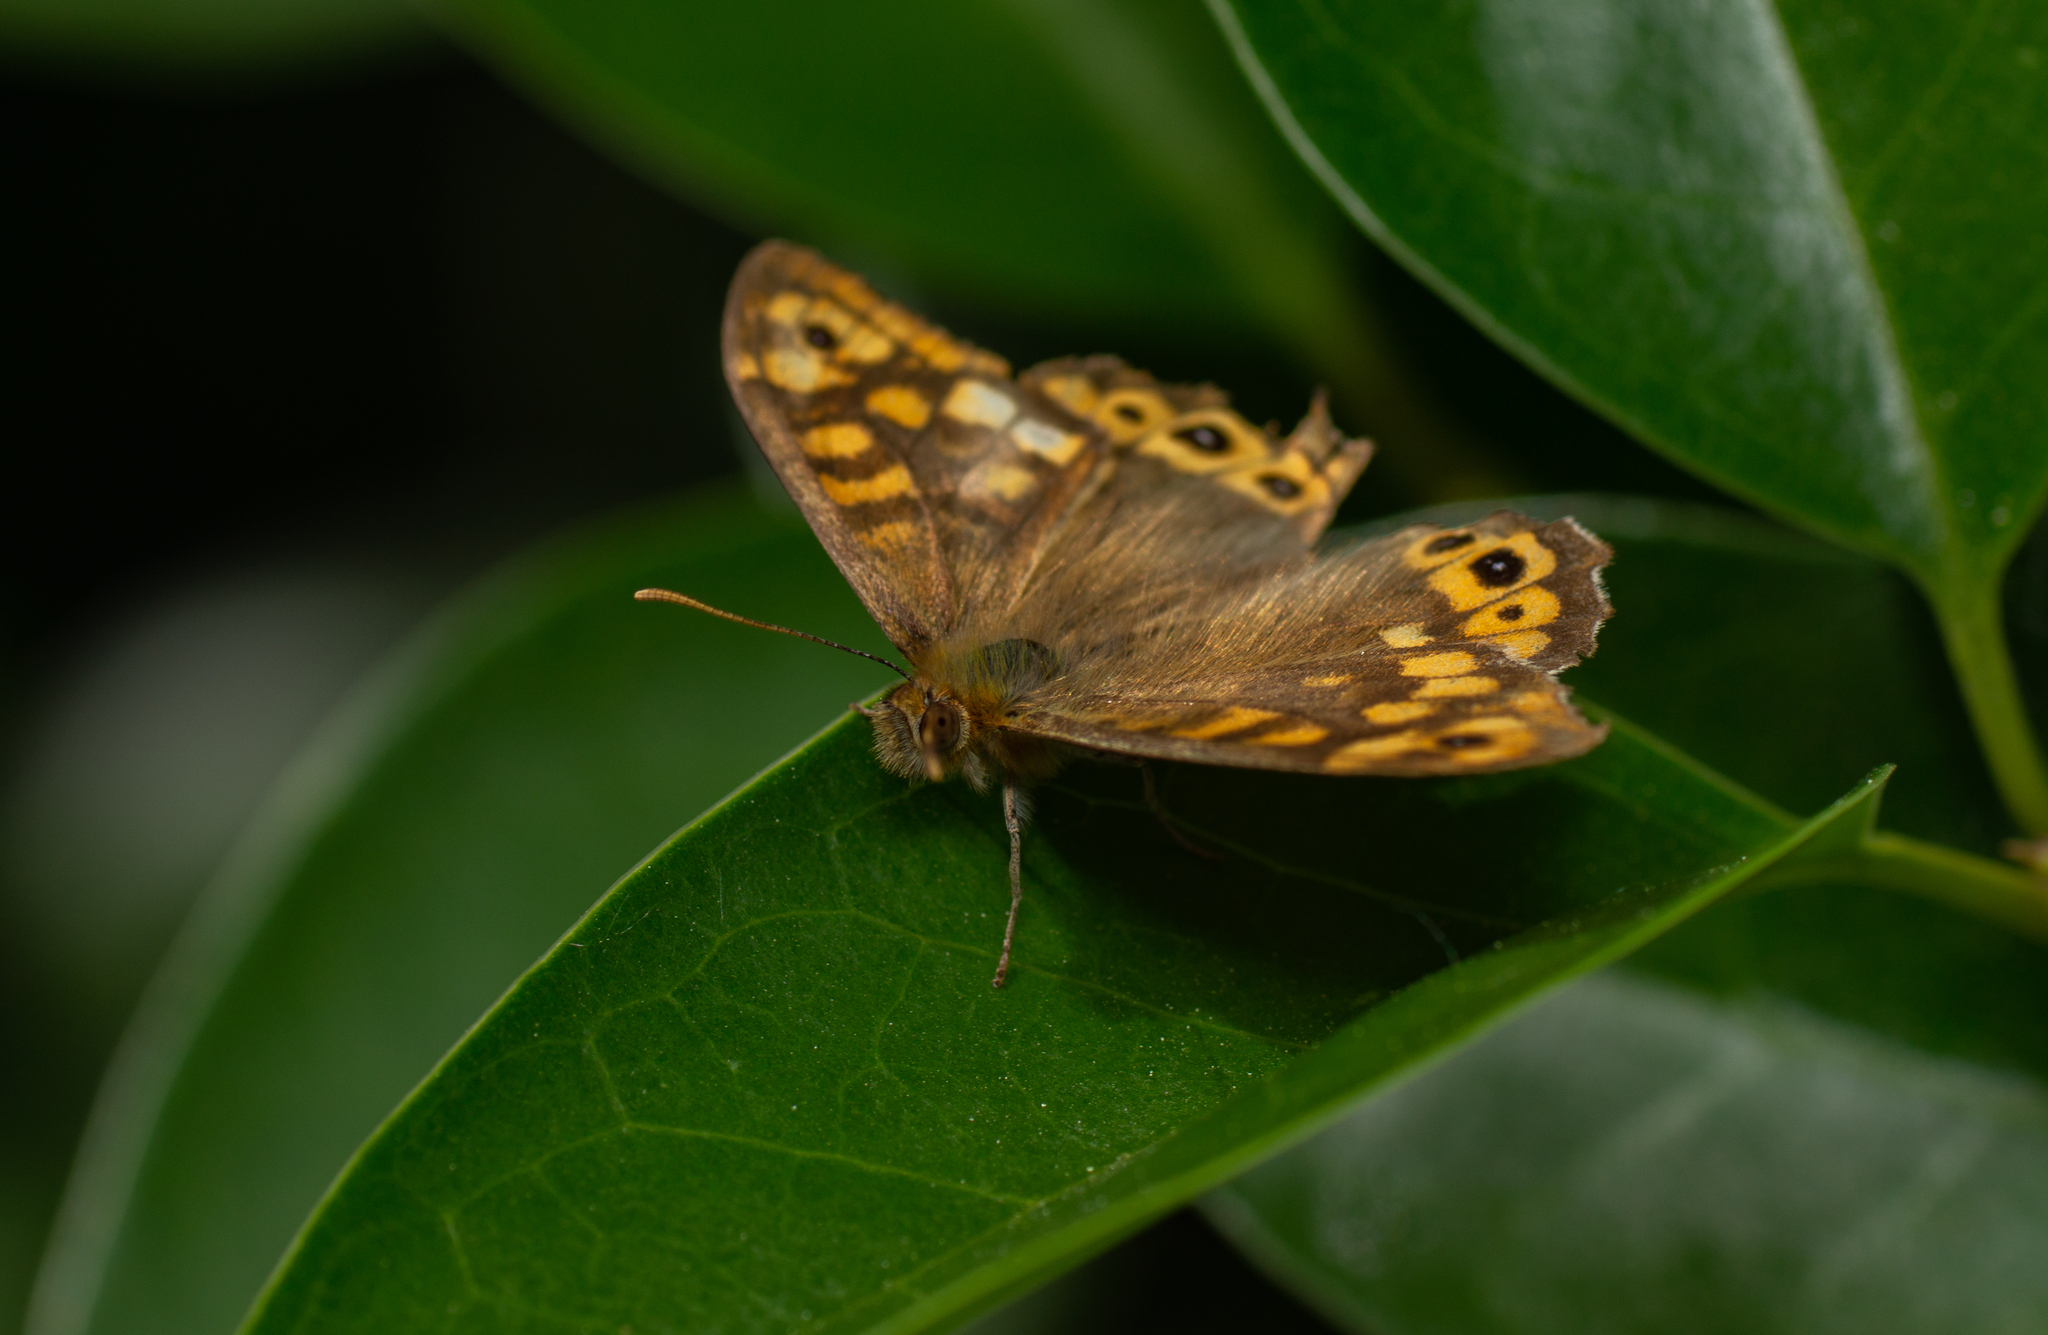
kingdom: Animalia
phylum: Arthropoda
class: Insecta
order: Lepidoptera
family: Nymphalidae
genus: Pararge
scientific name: Pararge aegeria
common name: Speckled wood
